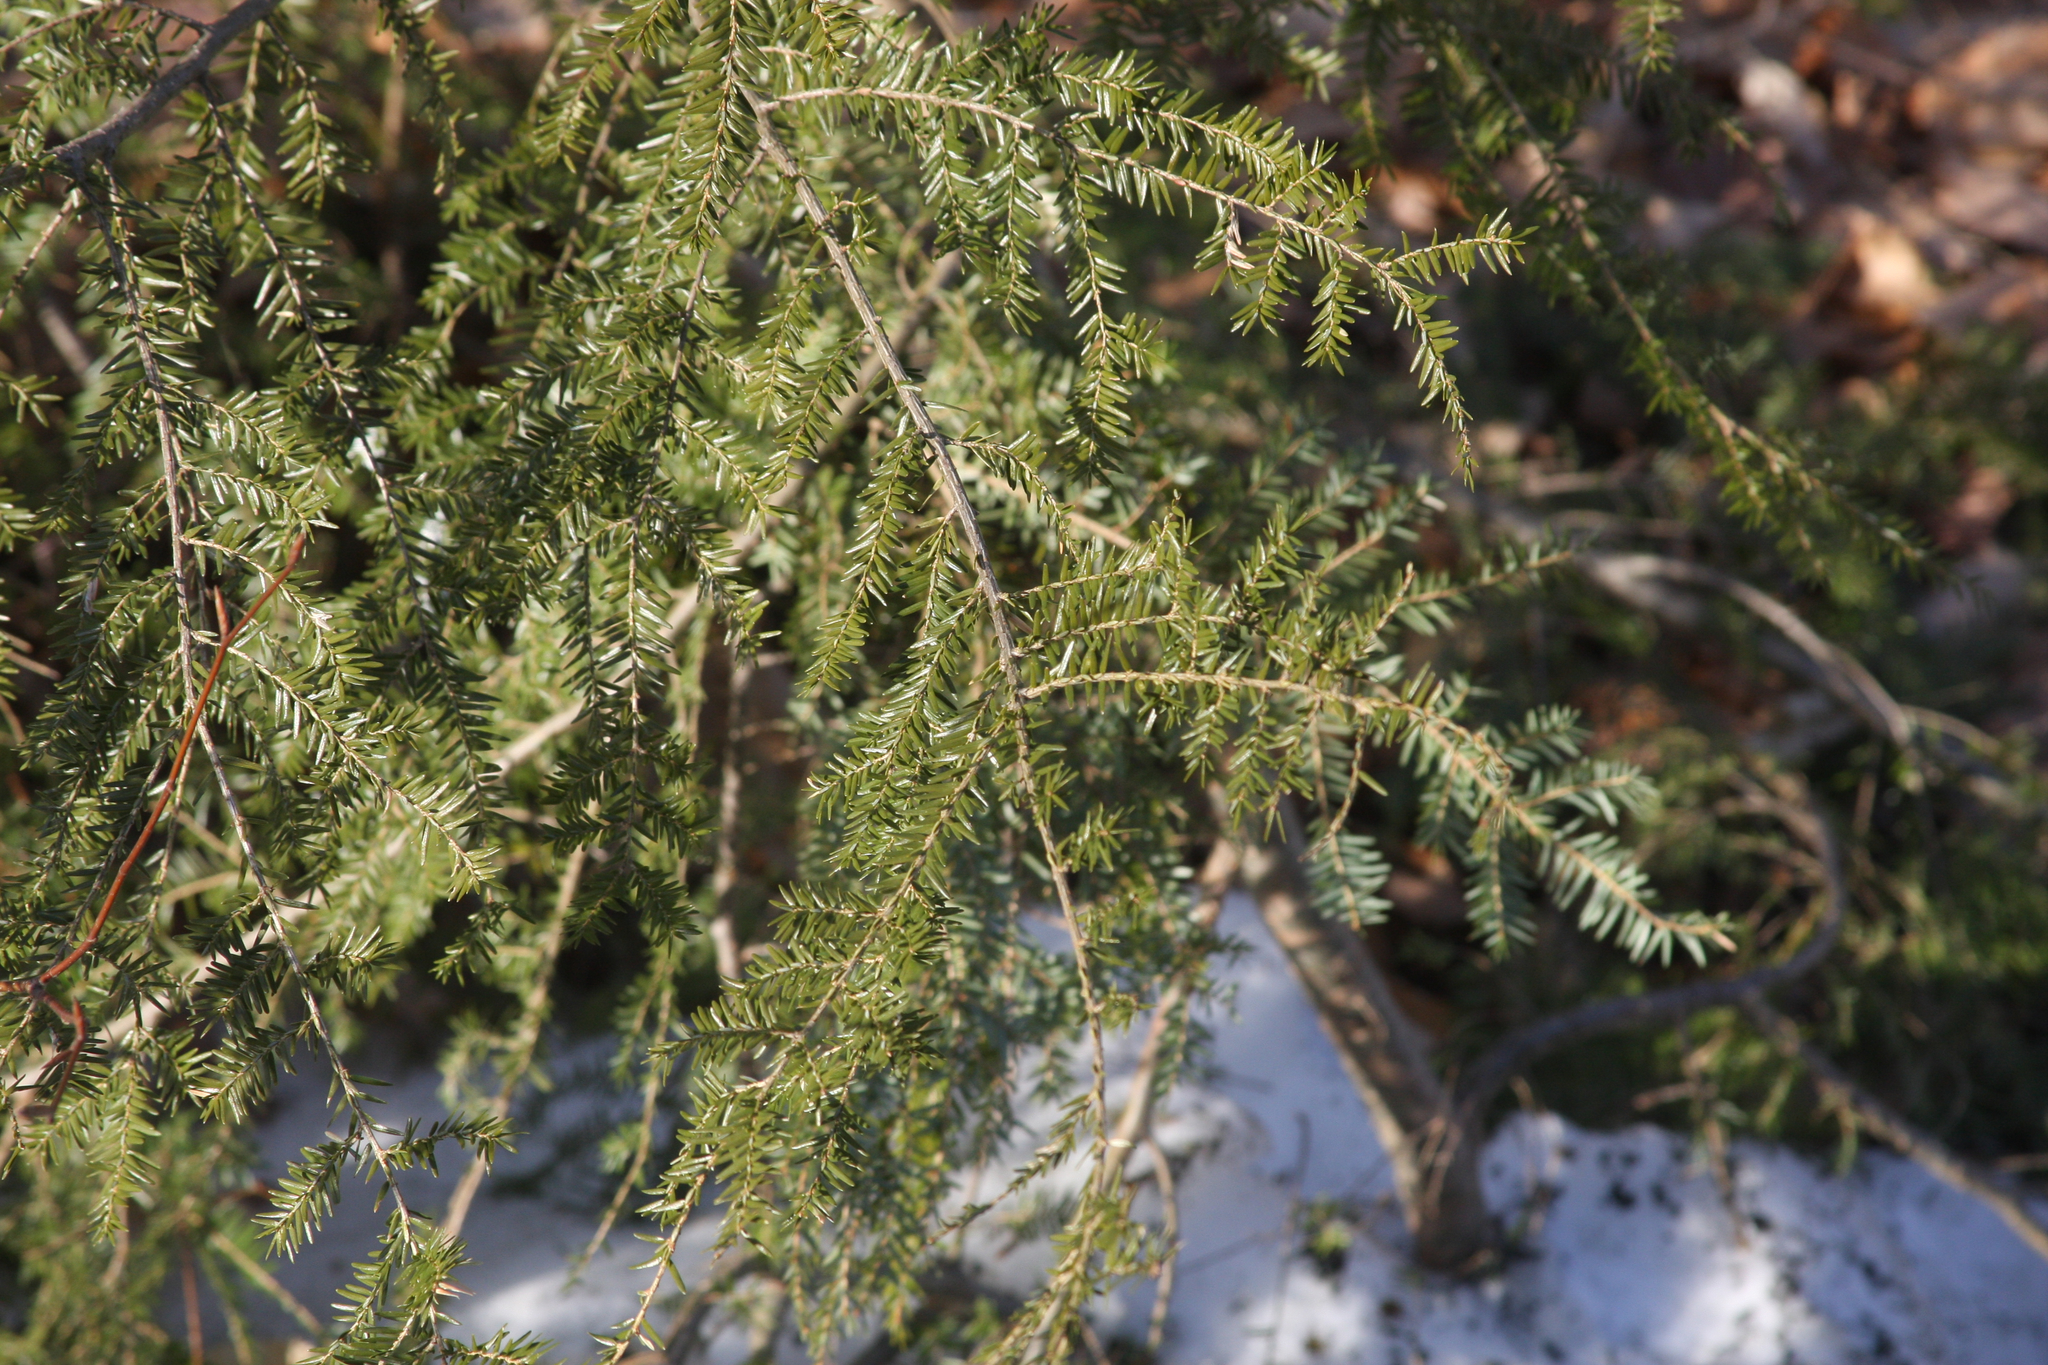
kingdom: Plantae
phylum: Tracheophyta
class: Pinopsida
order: Pinales
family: Pinaceae
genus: Tsuga
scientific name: Tsuga canadensis
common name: Eastern hemlock
